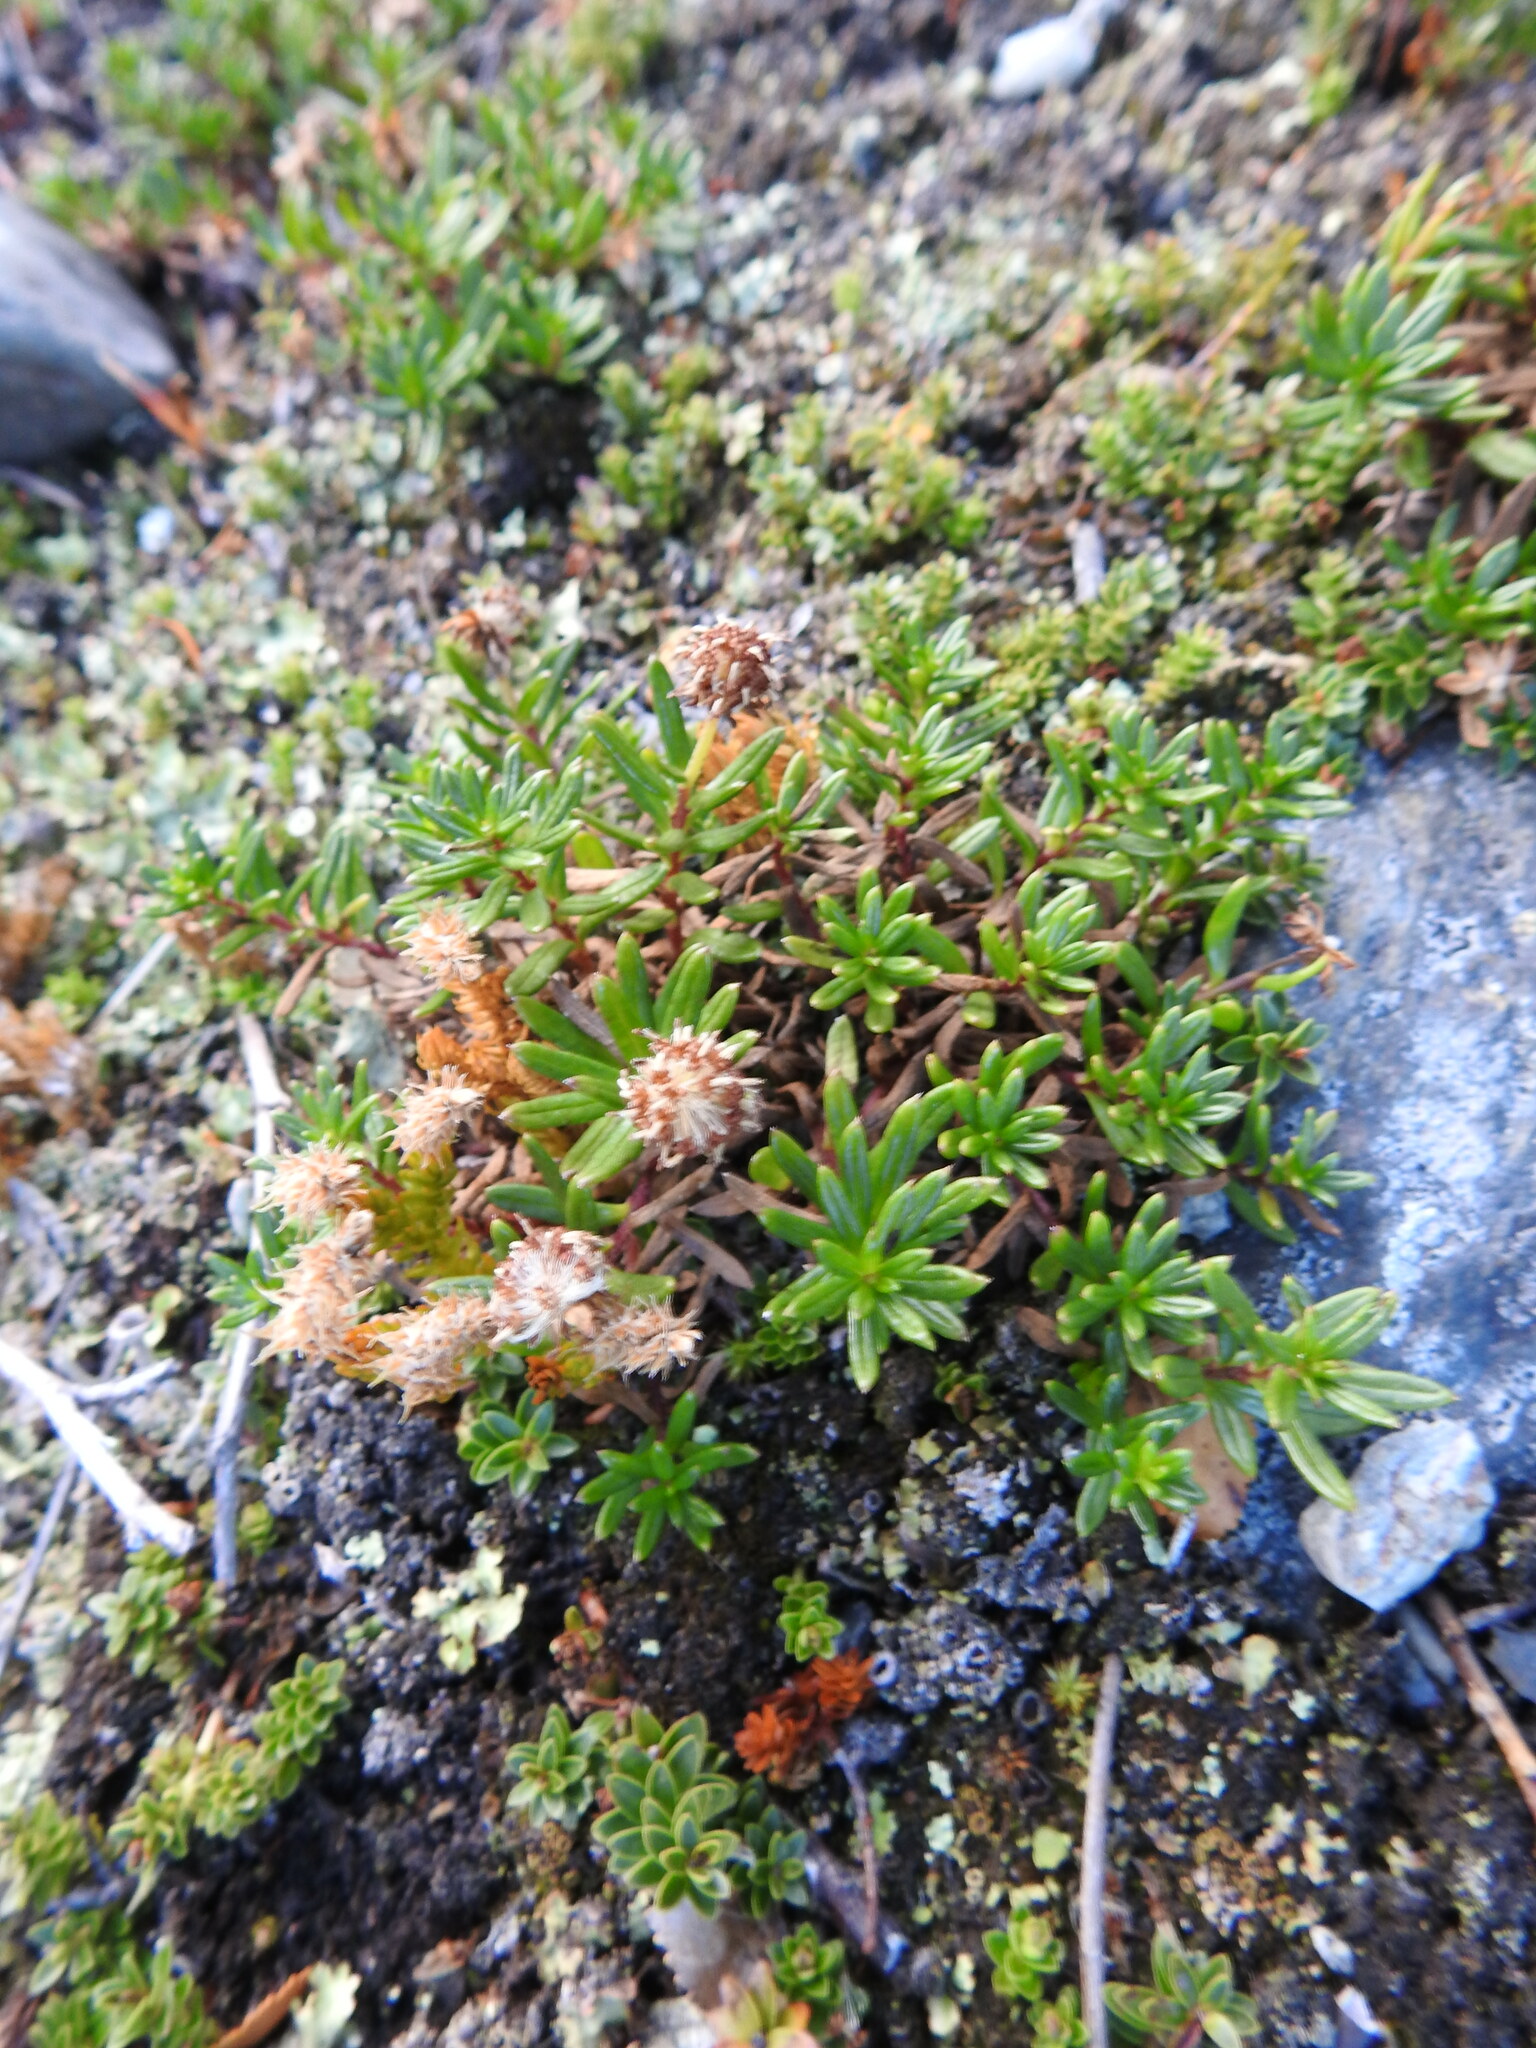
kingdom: Plantae
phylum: Tracheophyta
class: Magnoliopsida
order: Asterales
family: Asteraceae
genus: Baccharis
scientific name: Baccharis nivalis
